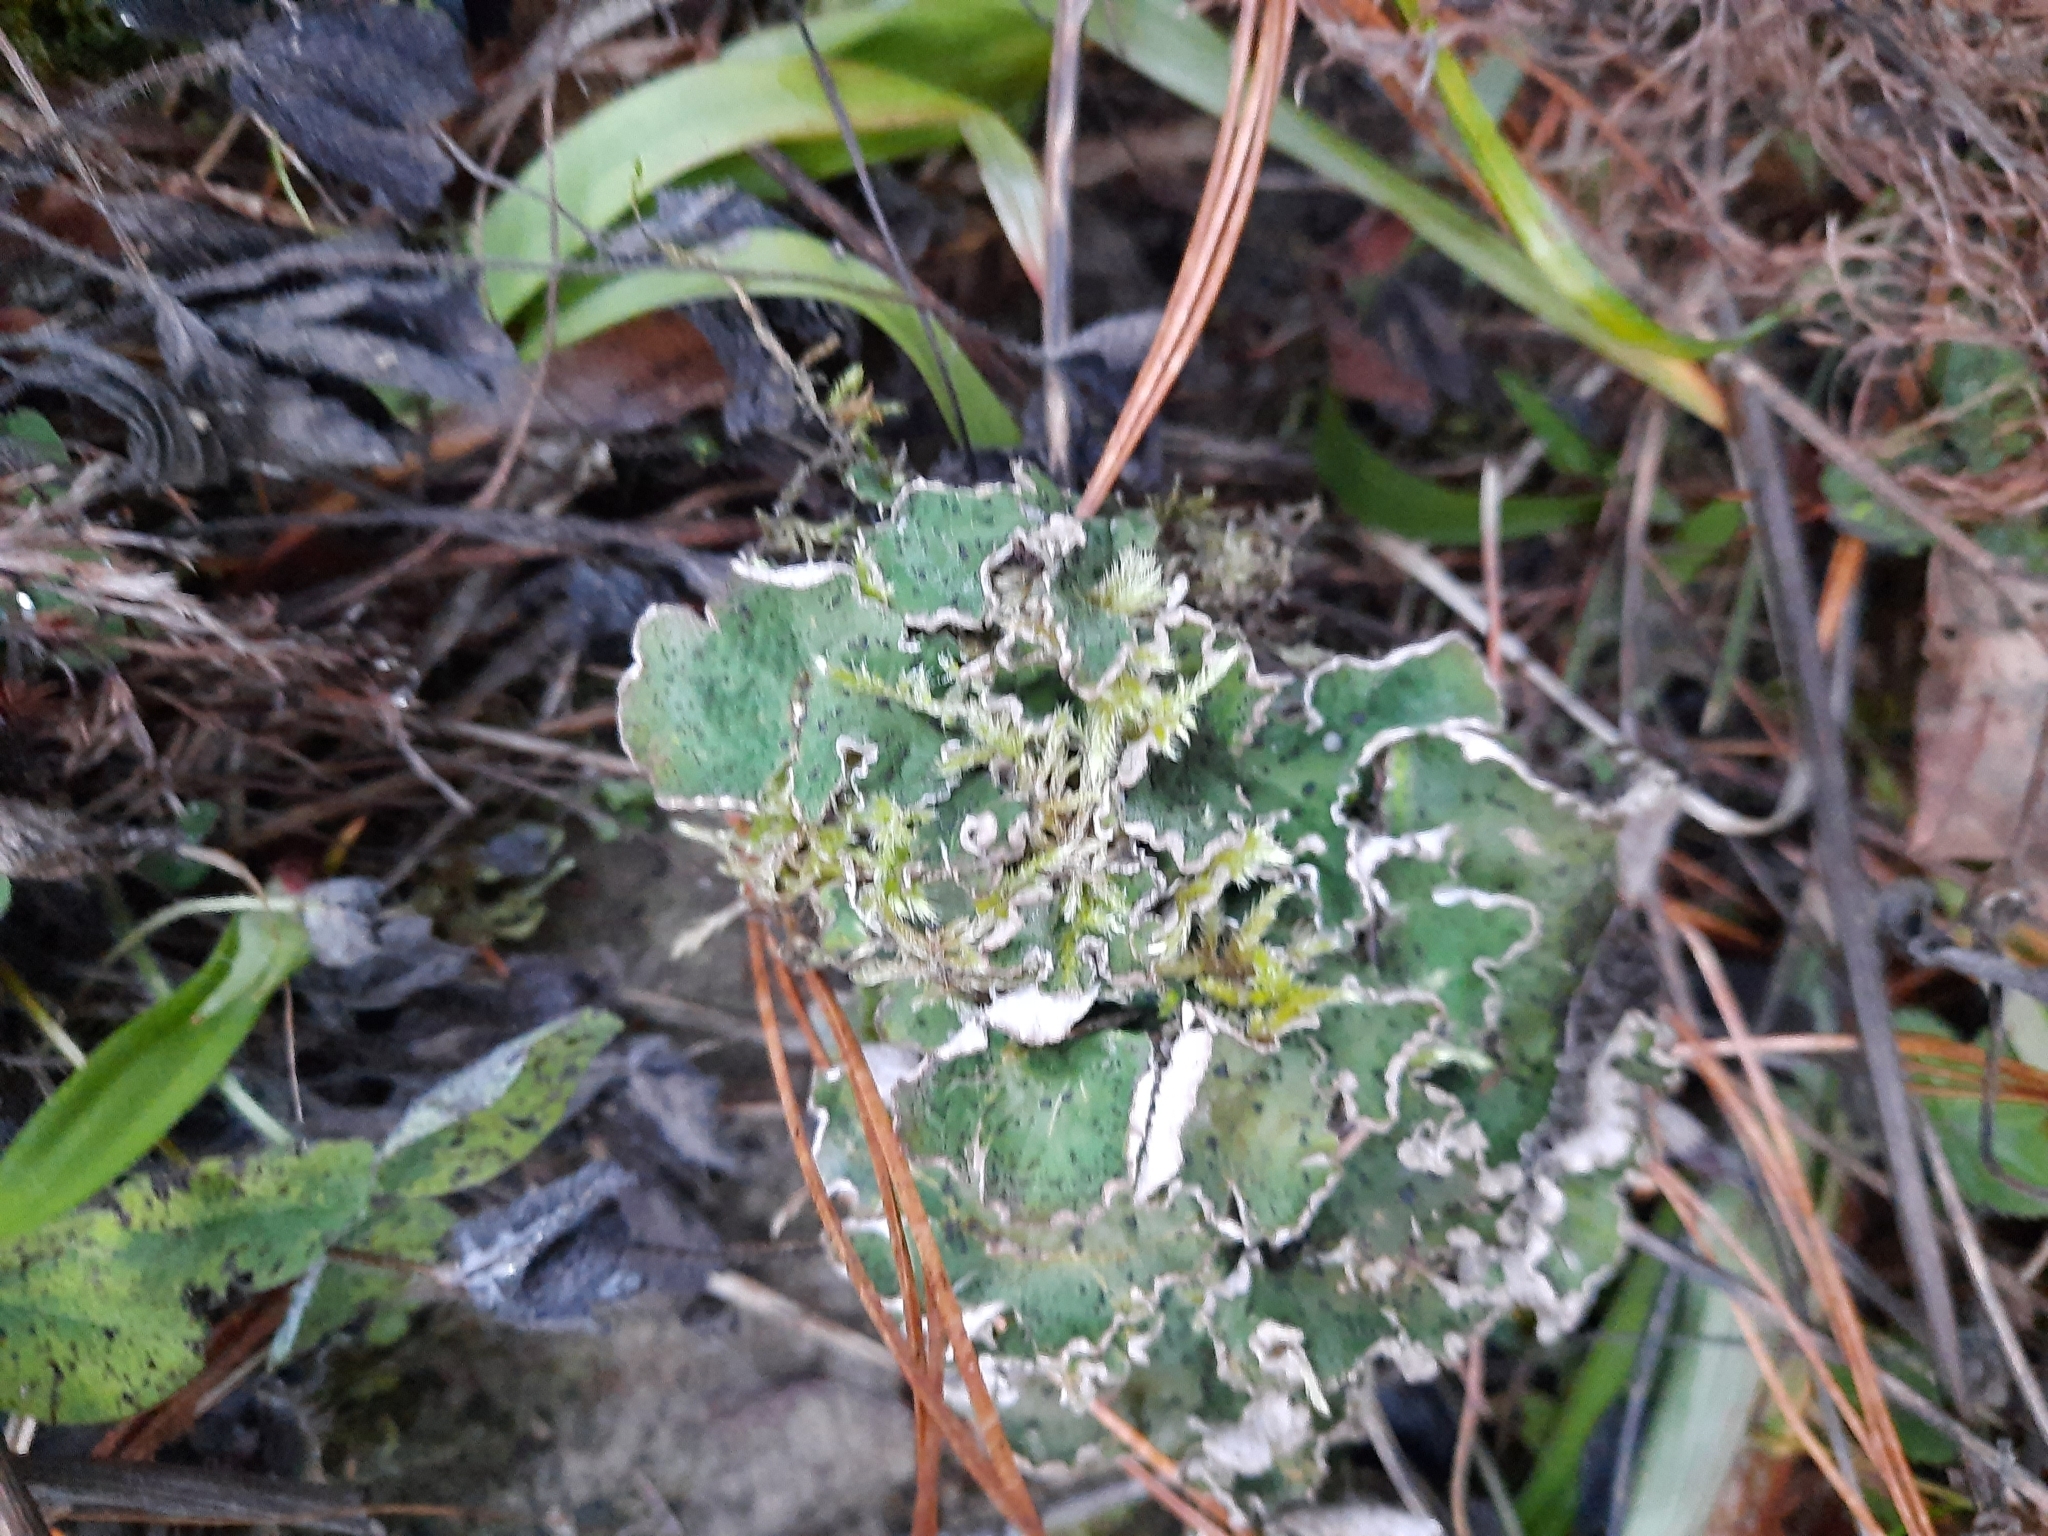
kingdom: Fungi
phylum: Ascomycota
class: Lecanoromycetes
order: Peltigerales
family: Peltigeraceae
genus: Peltigera
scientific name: Peltigera aphthosa
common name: Common freckle pelt lichen
